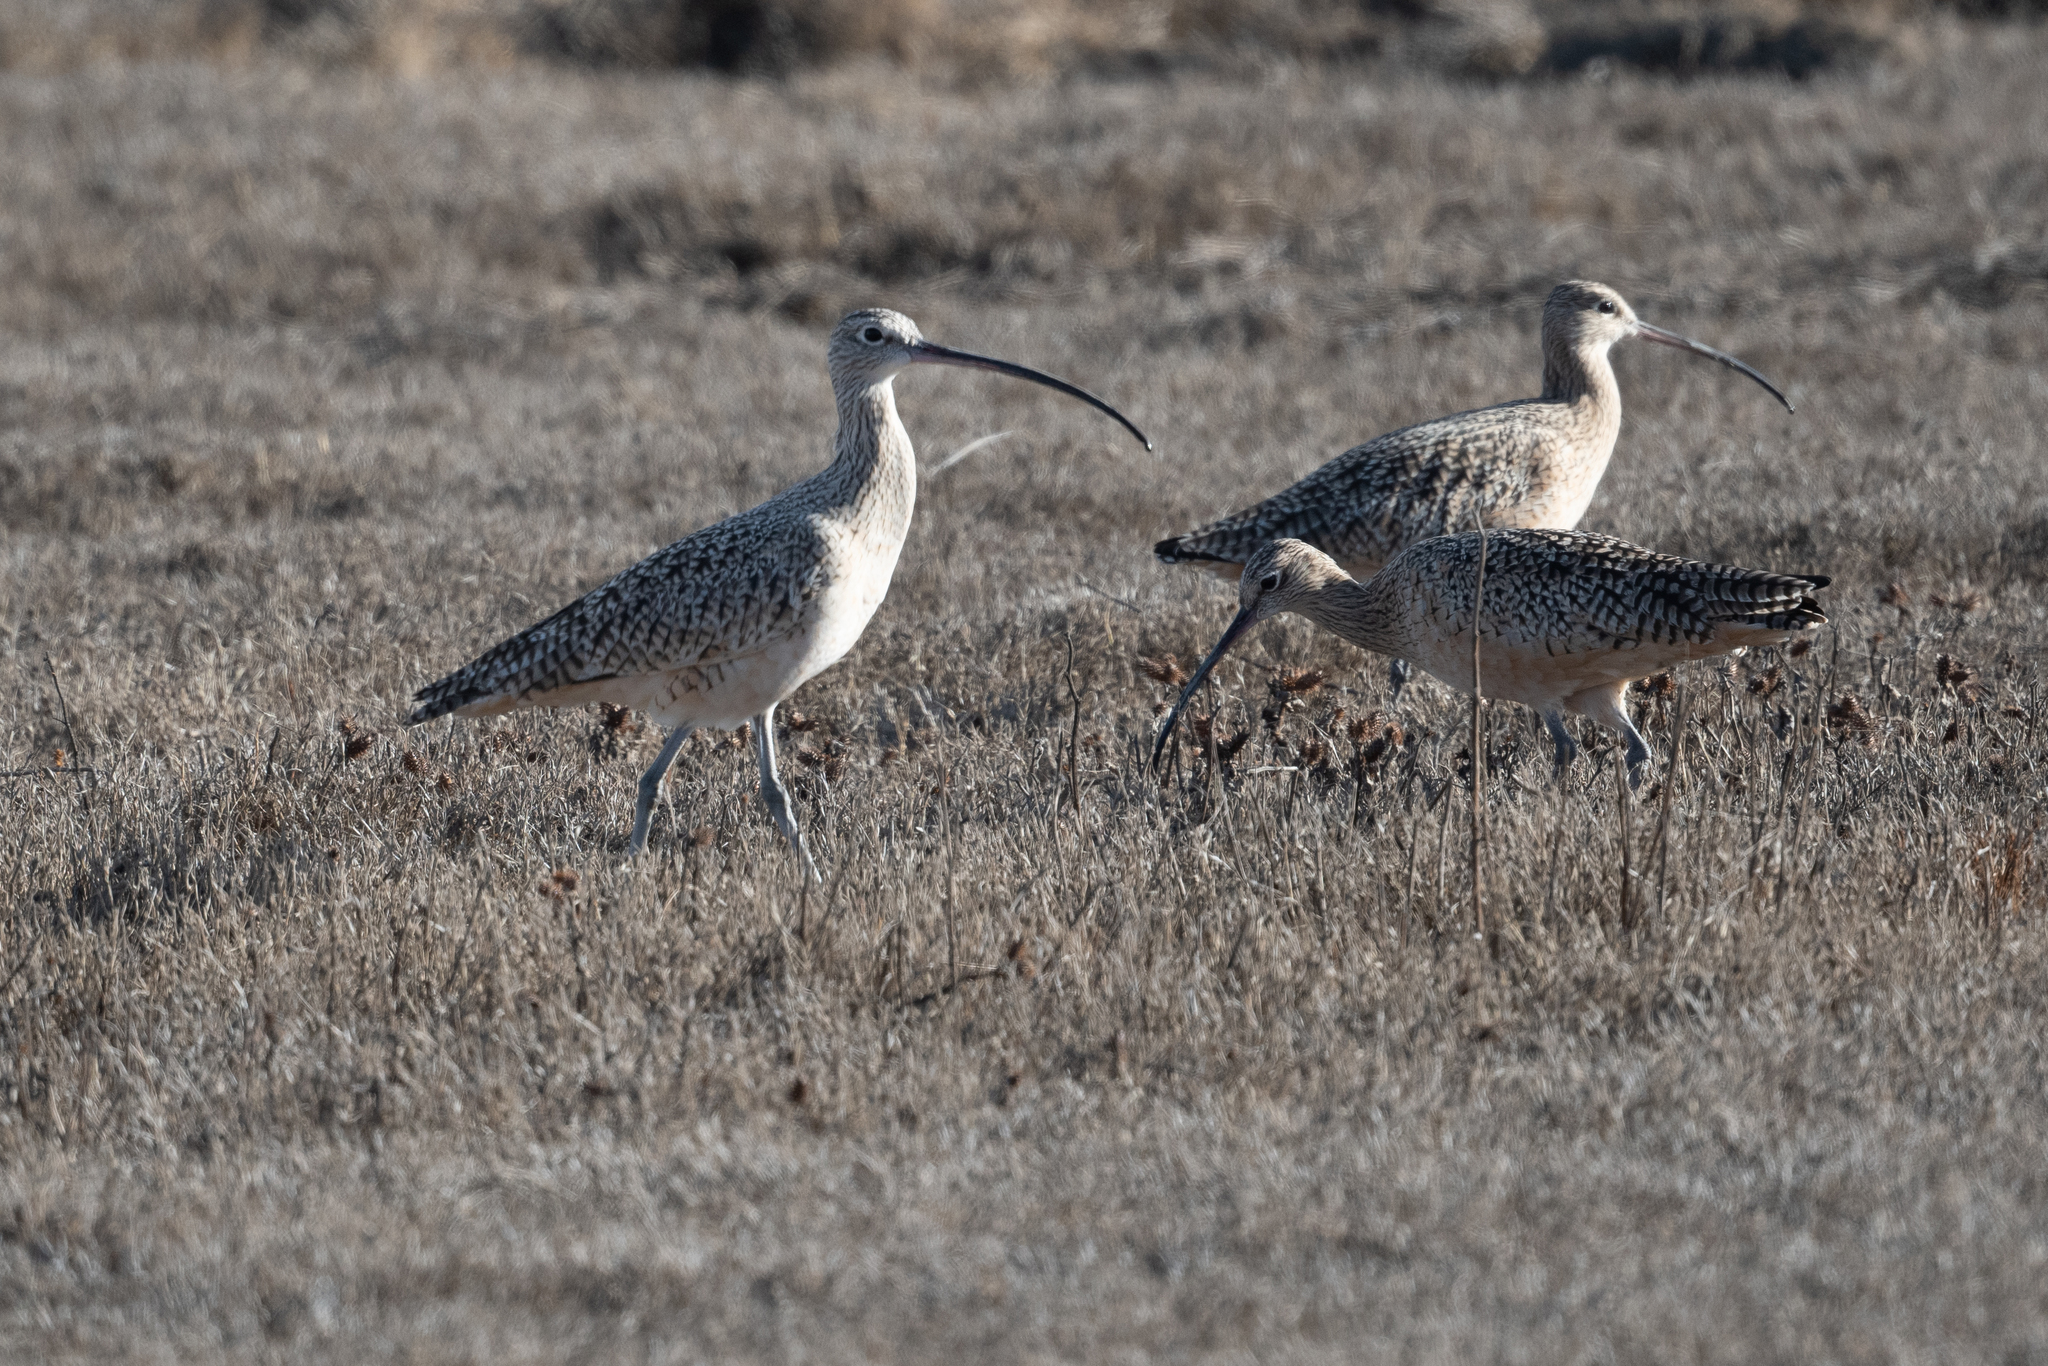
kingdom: Animalia
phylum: Chordata
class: Aves
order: Charadriiformes
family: Scolopacidae
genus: Numenius
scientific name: Numenius americanus
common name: Long-billed curlew
